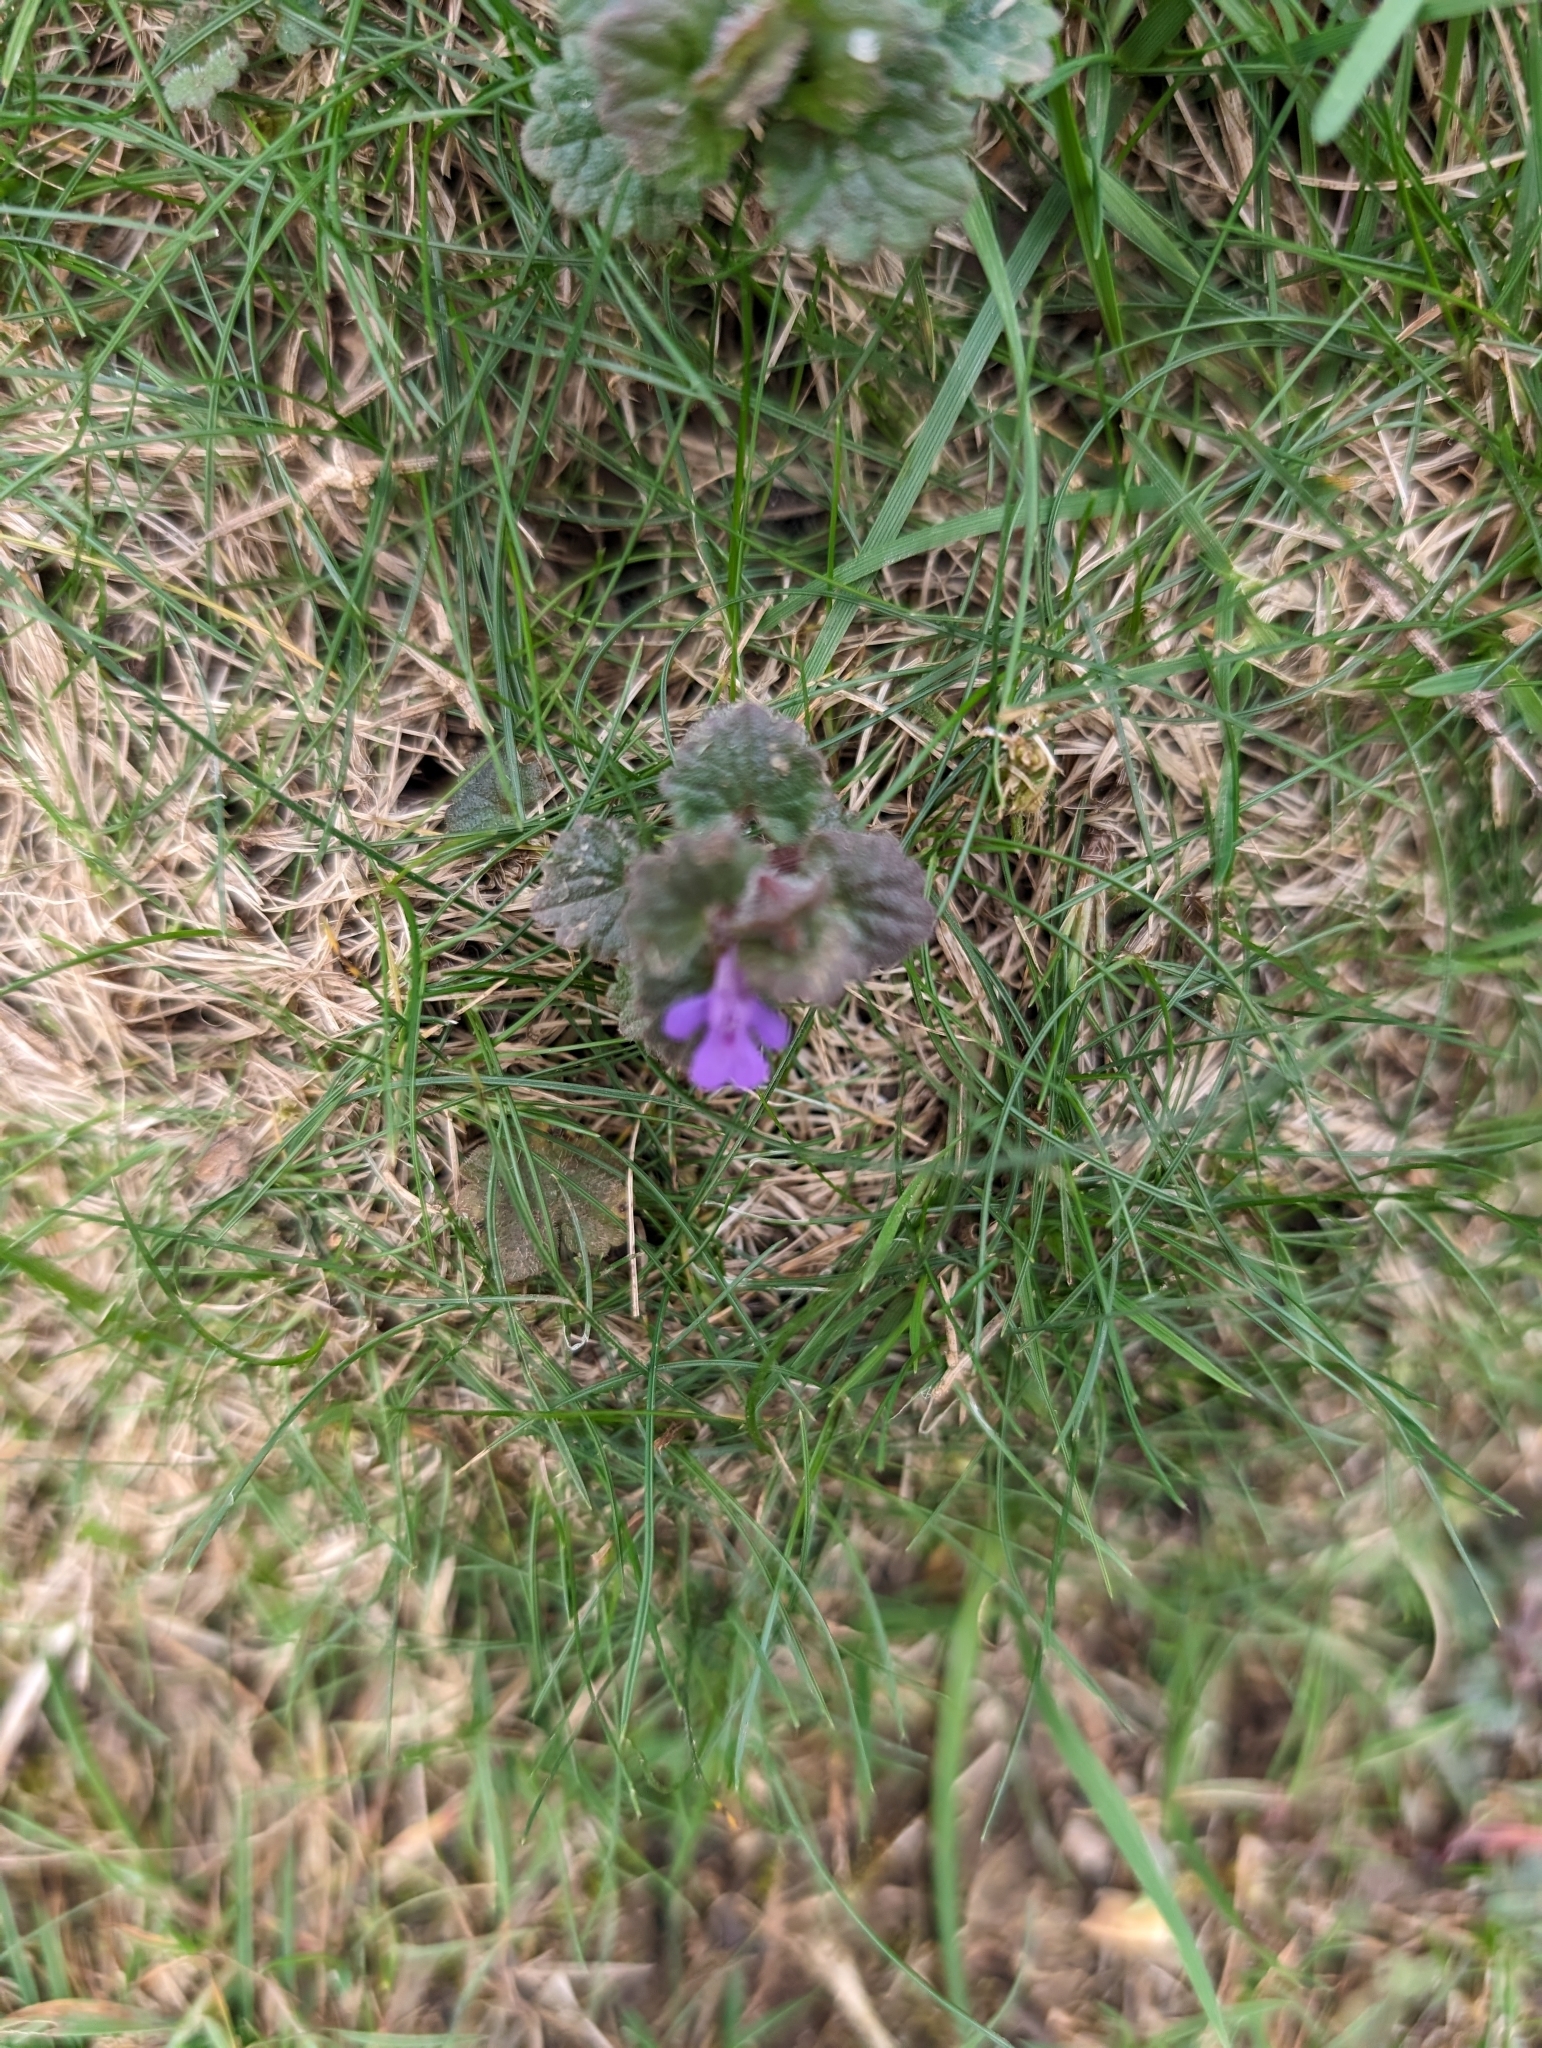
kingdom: Plantae
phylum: Tracheophyta
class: Magnoliopsida
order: Lamiales
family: Lamiaceae
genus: Glechoma
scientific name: Glechoma hederacea
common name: Ground ivy
